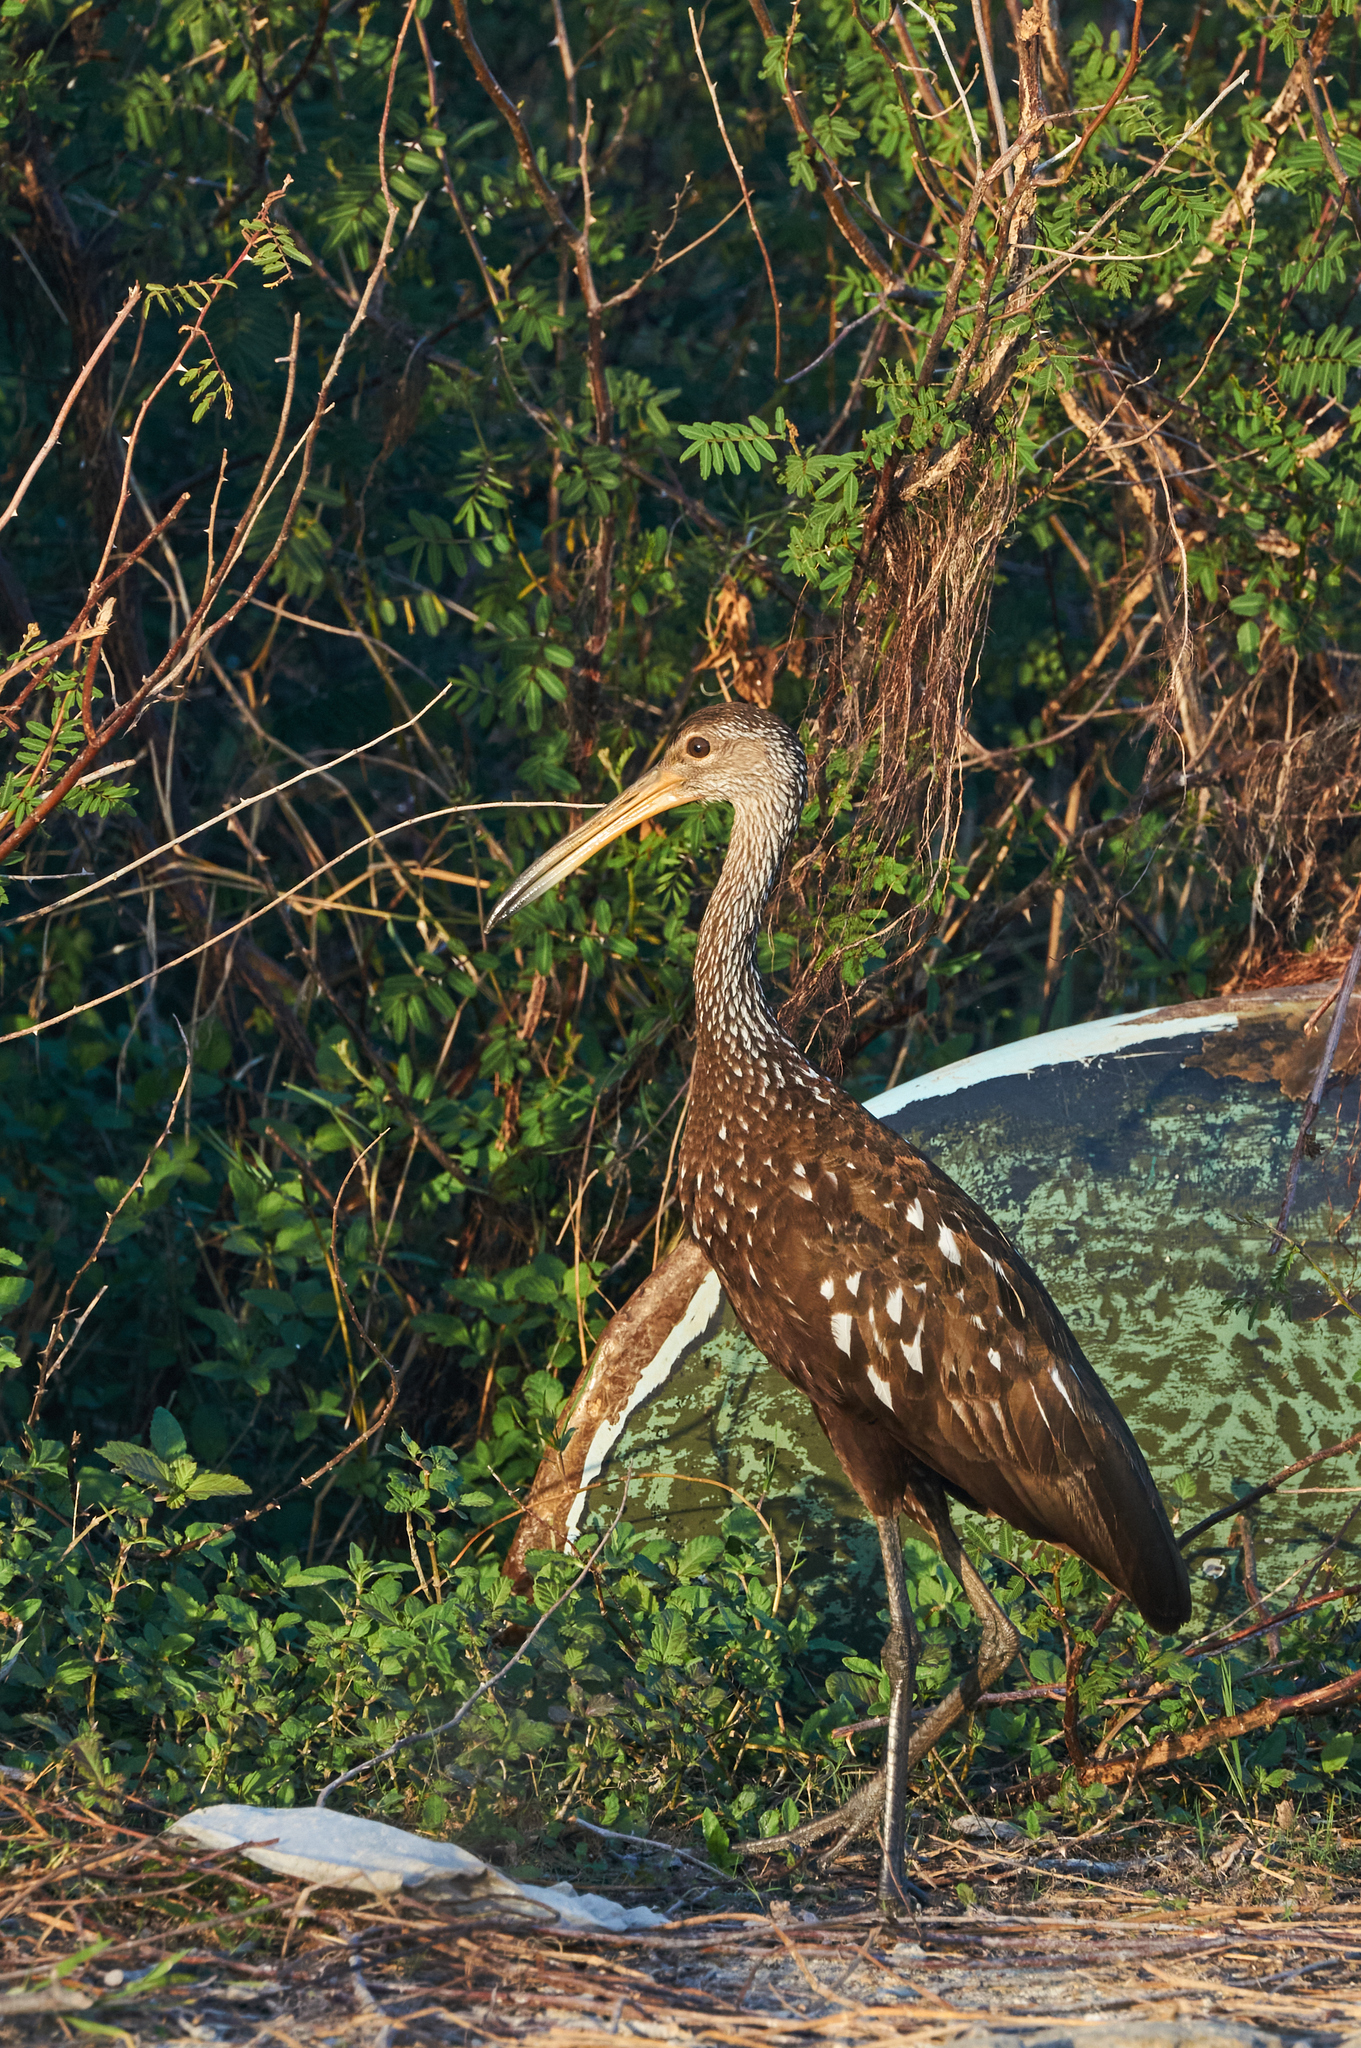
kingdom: Animalia
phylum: Chordata
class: Aves
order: Gruiformes
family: Aramidae
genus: Aramus
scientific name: Aramus guarauna
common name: Limpkin
